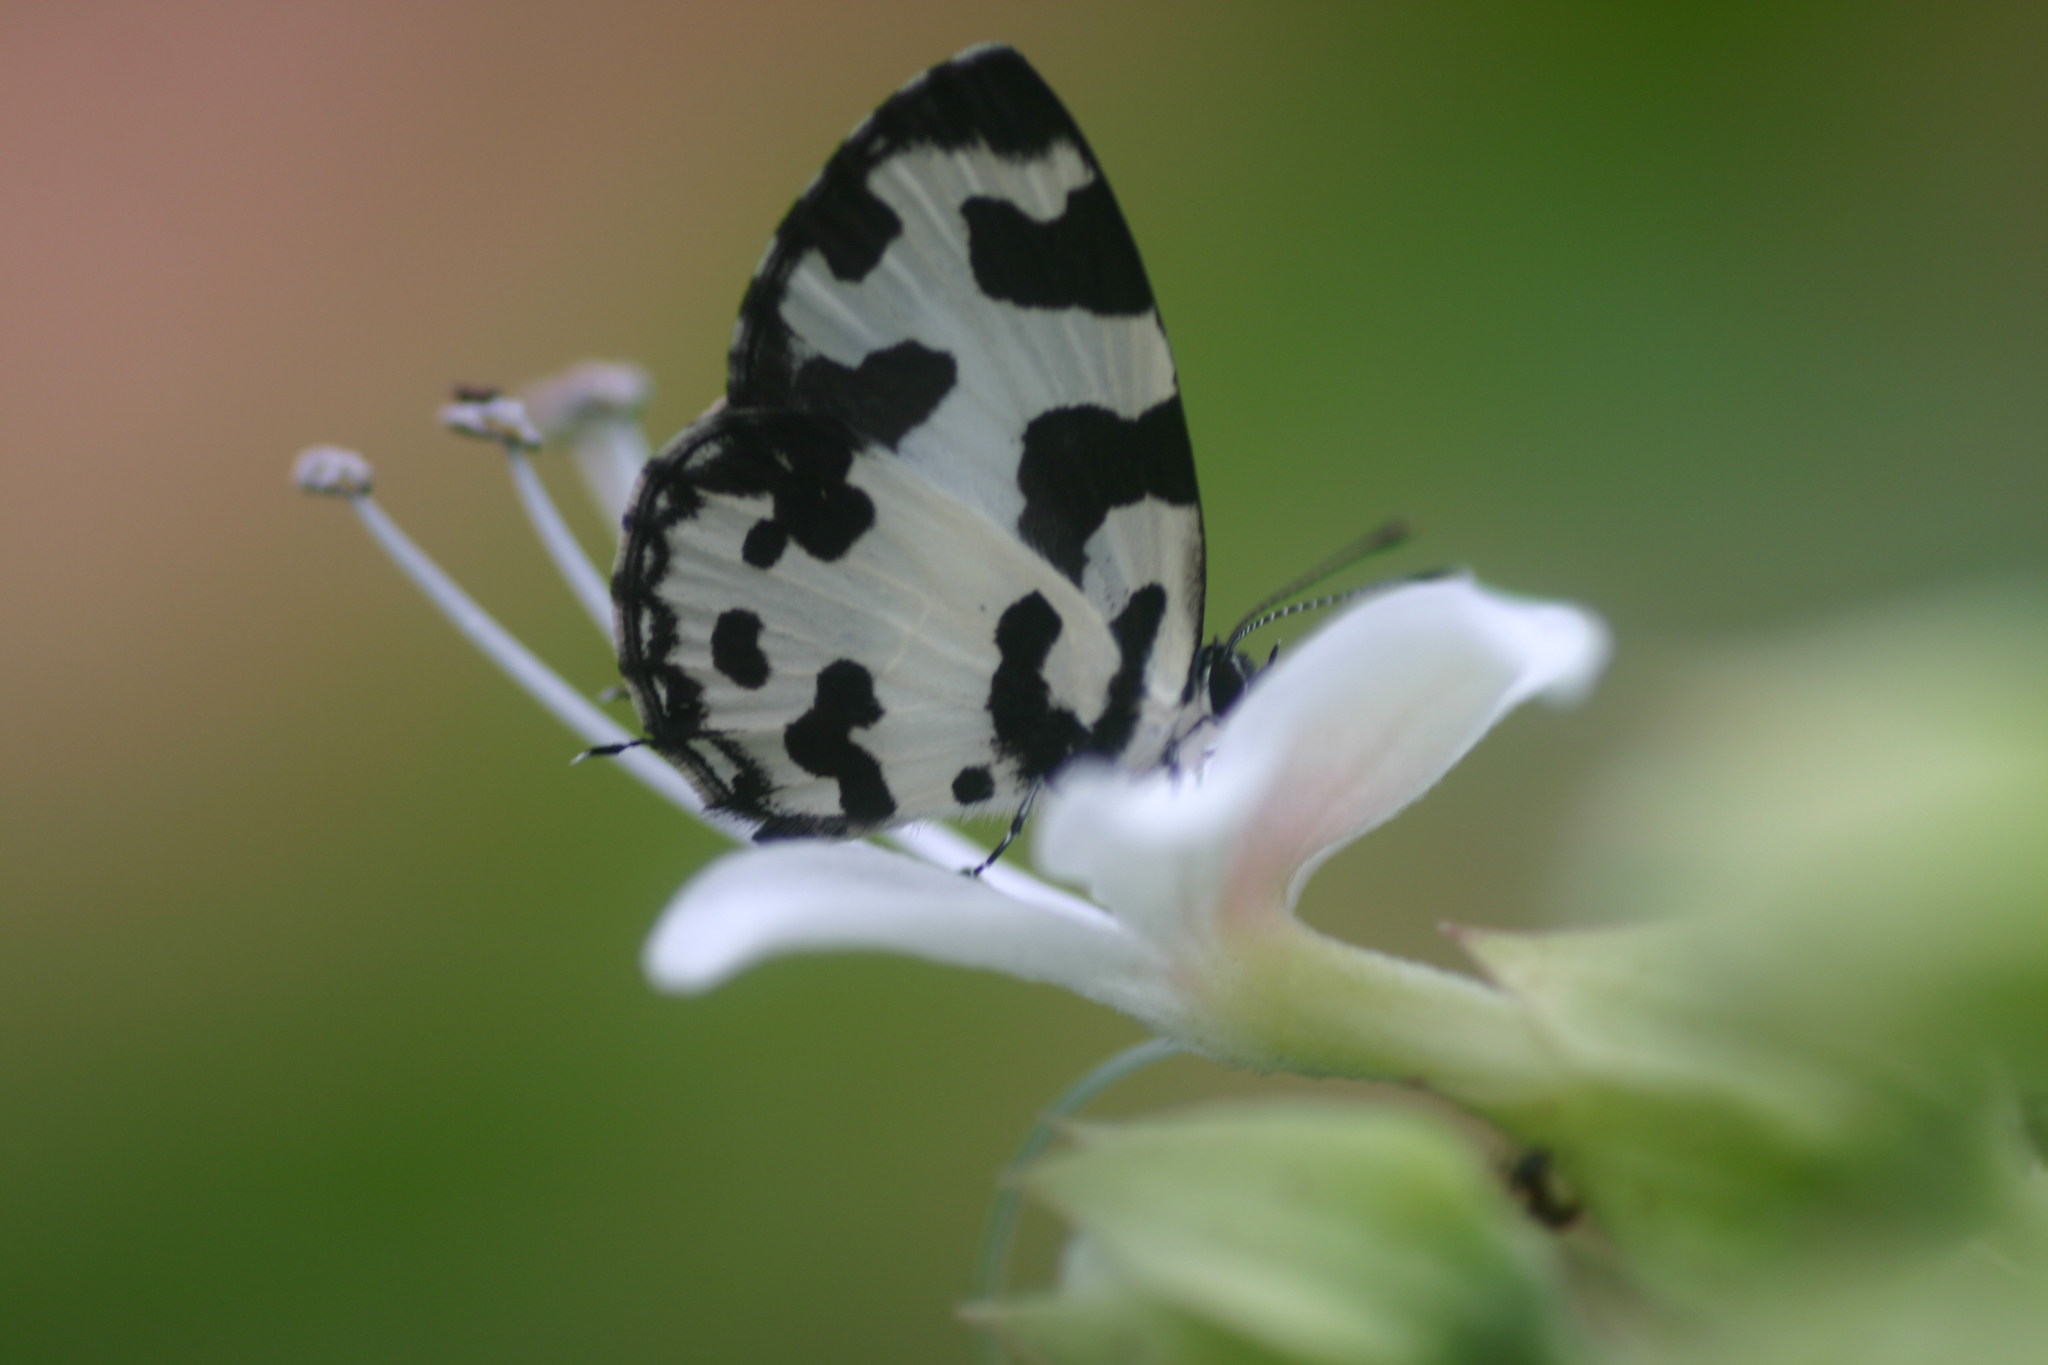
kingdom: Animalia
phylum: Arthropoda
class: Insecta
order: Lepidoptera
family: Lycaenidae
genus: Caleta
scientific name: Caleta decidia
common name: Angled pierrot
